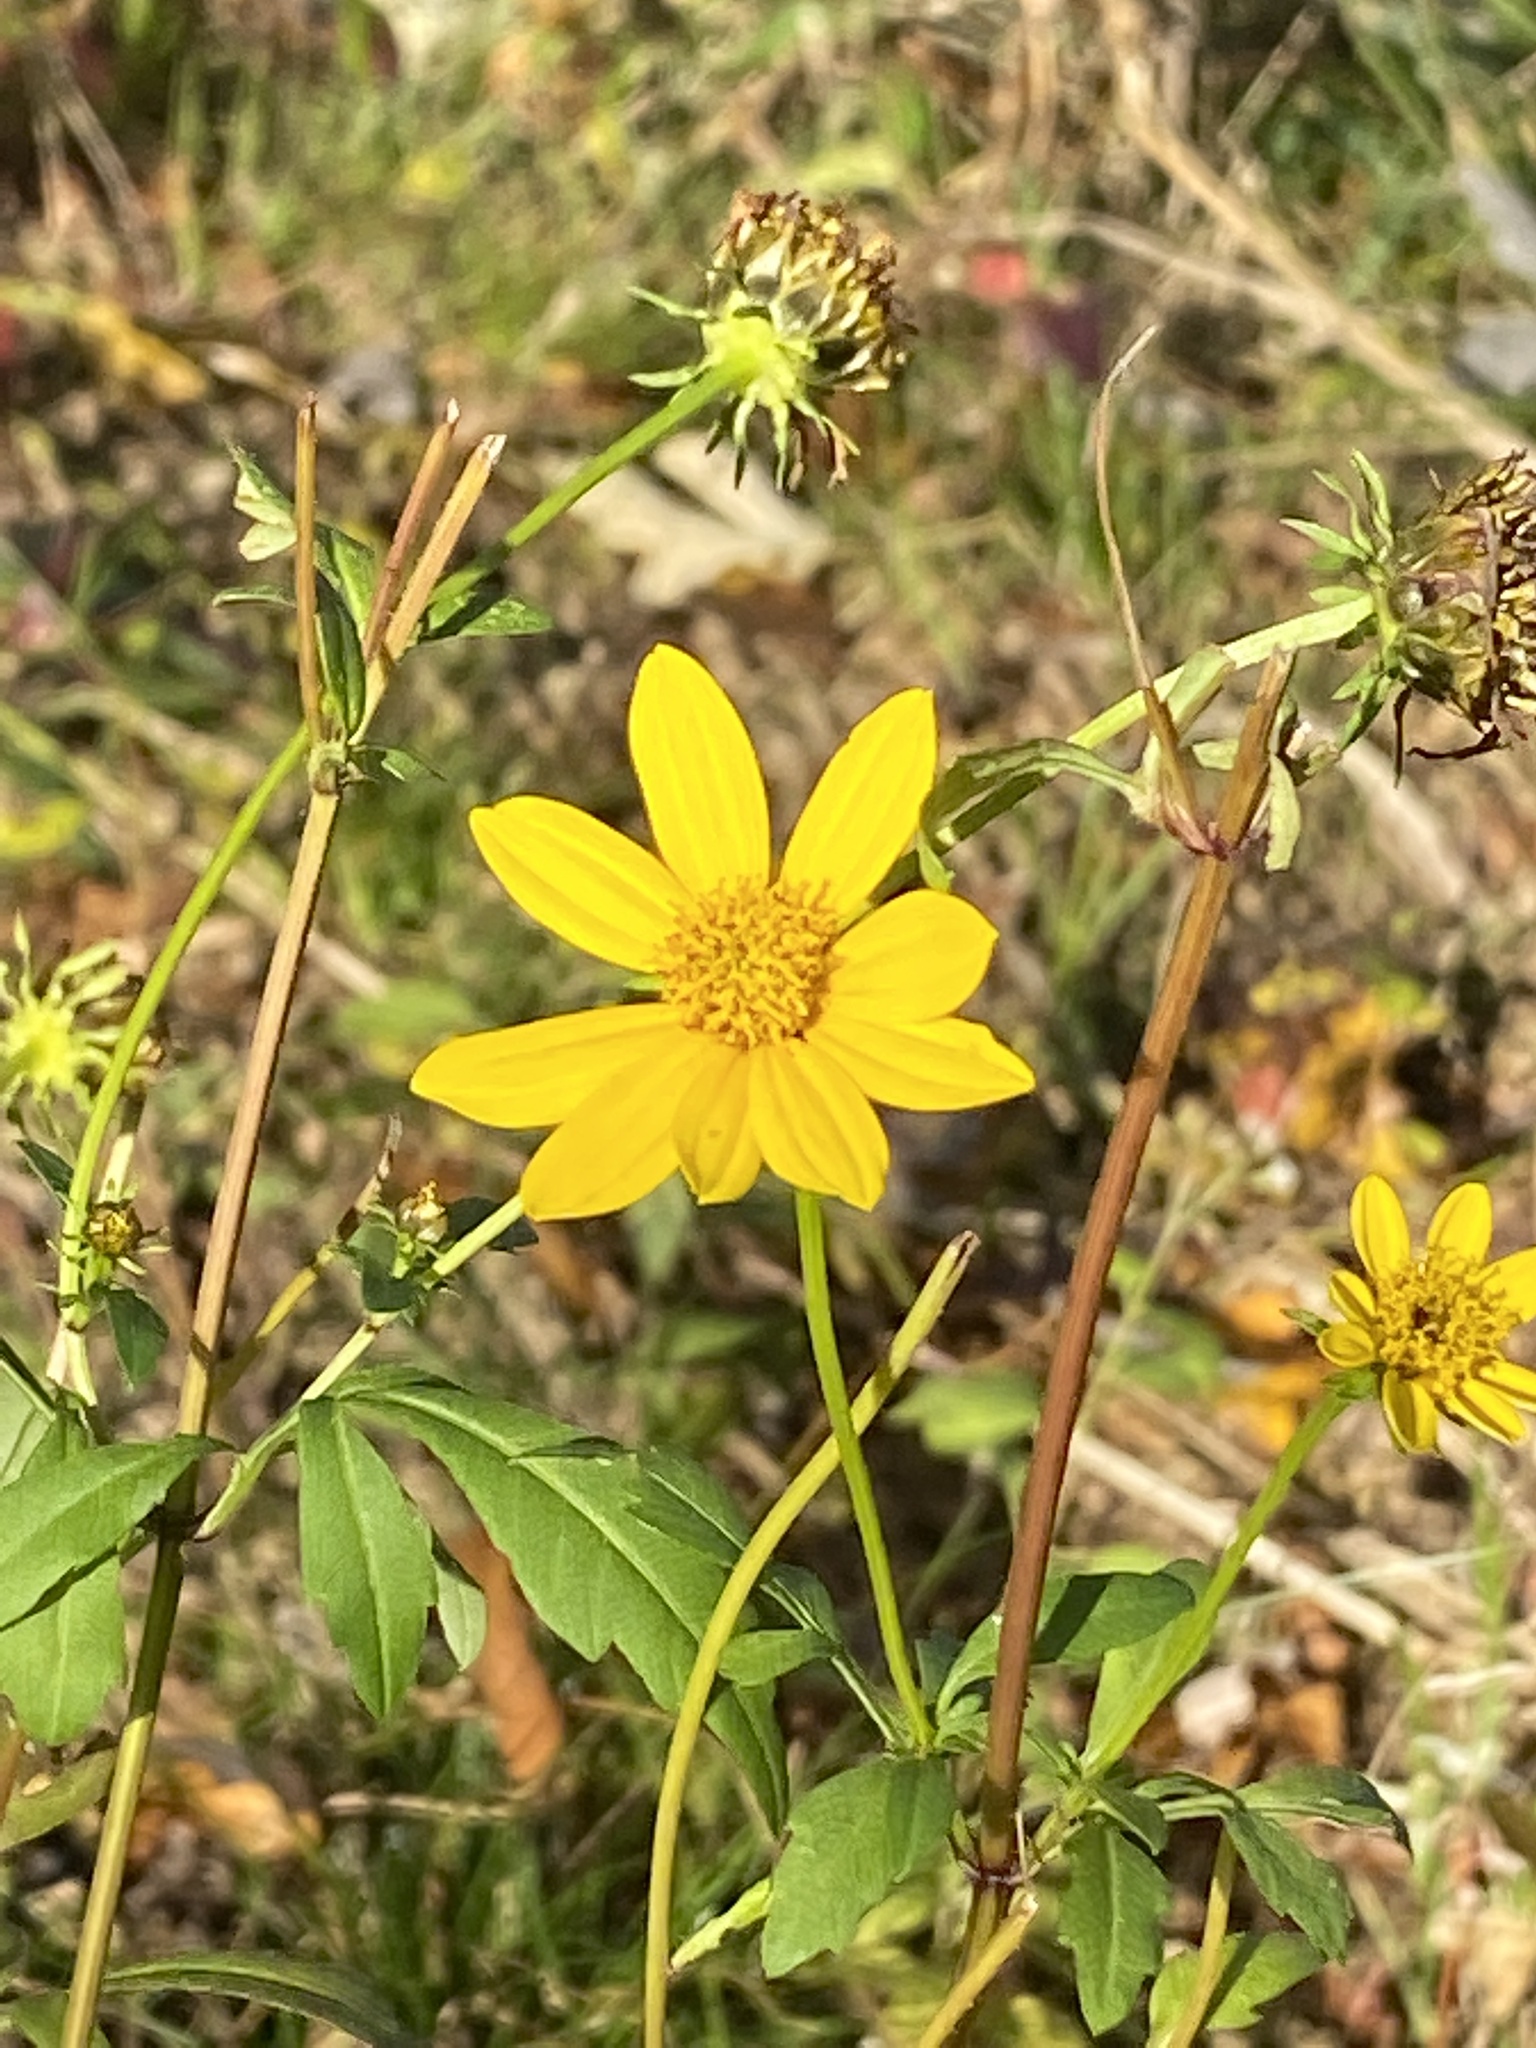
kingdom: Plantae
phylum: Tracheophyta
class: Magnoliopsida
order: Asterales
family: Asteraceae
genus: Bidens
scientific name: Bidens polylepis
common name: Awnless beggarticks
